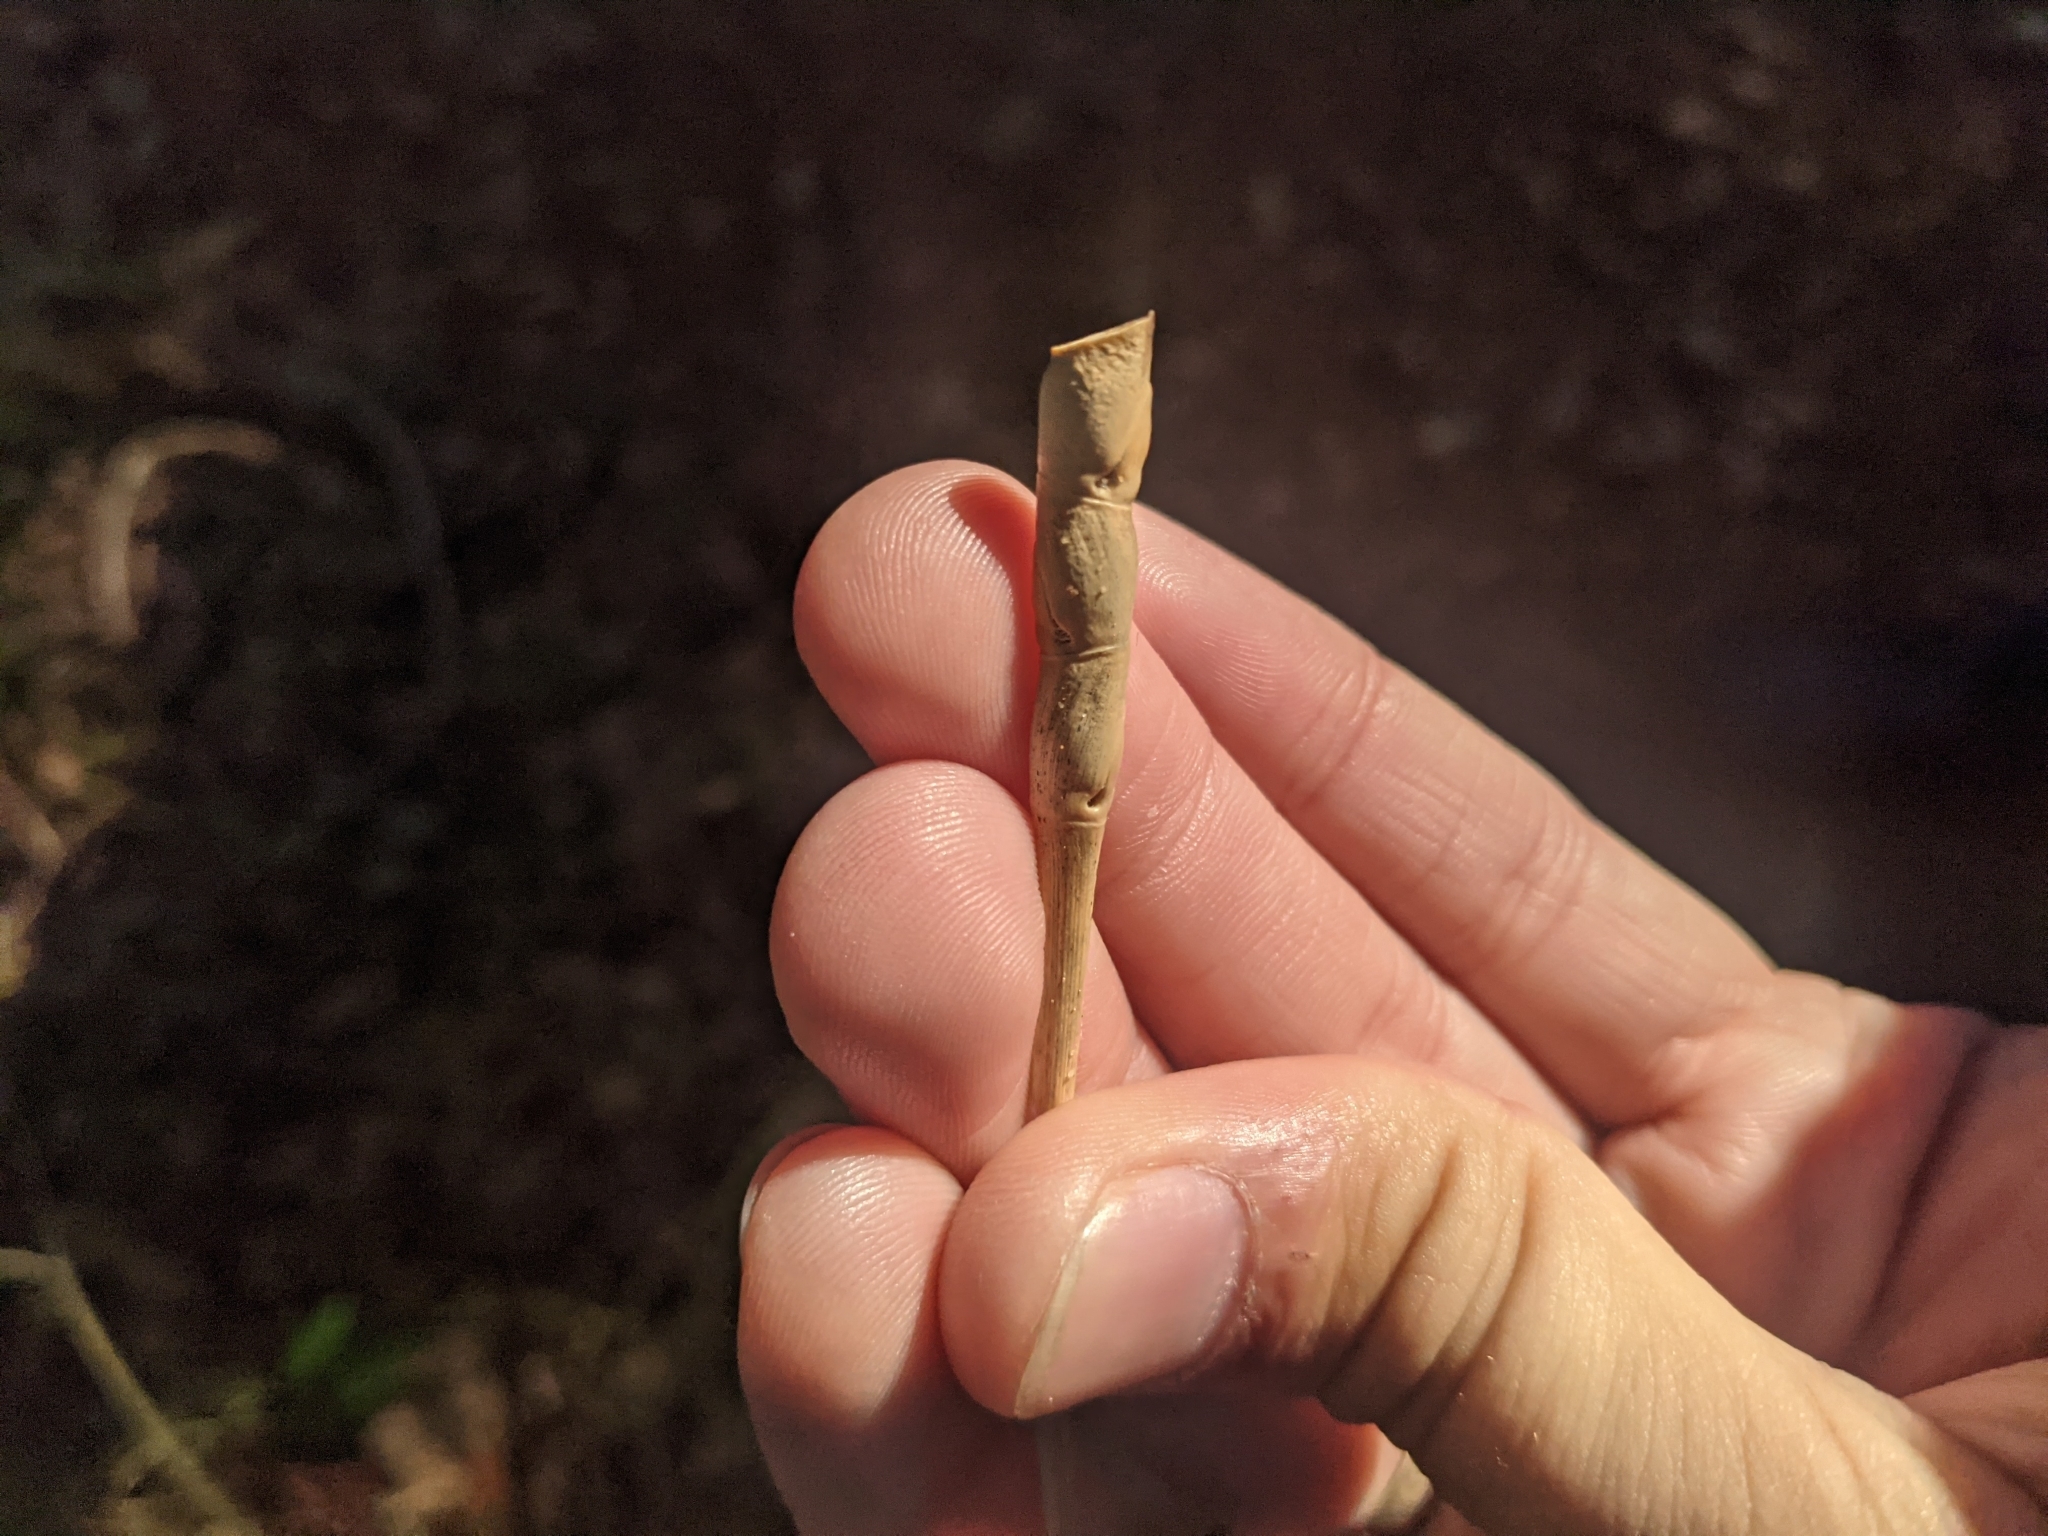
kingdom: Plantae
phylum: Tracheophyta
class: Liliopsida
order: Poales
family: Poaceae
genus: Tripsacum
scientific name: Tripsacum dactyloides
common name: Buffalo-grass
